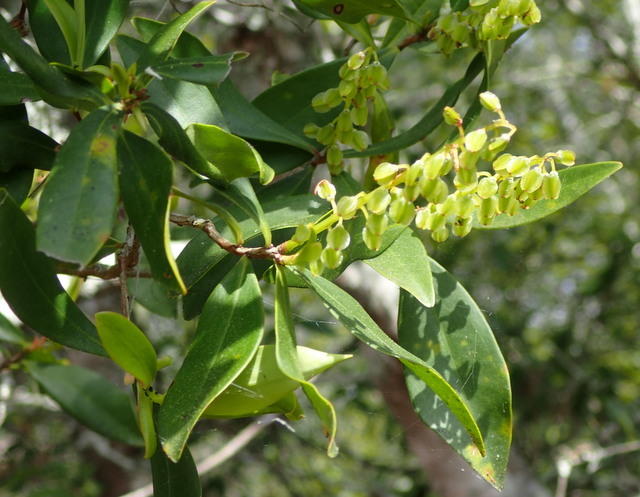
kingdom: Plantae
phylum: Tracheophyta
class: Magnoliopsida
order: Ericales
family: Cyrillaceae
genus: Cliftonia
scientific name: Cliftonia monophylla
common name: Titi
